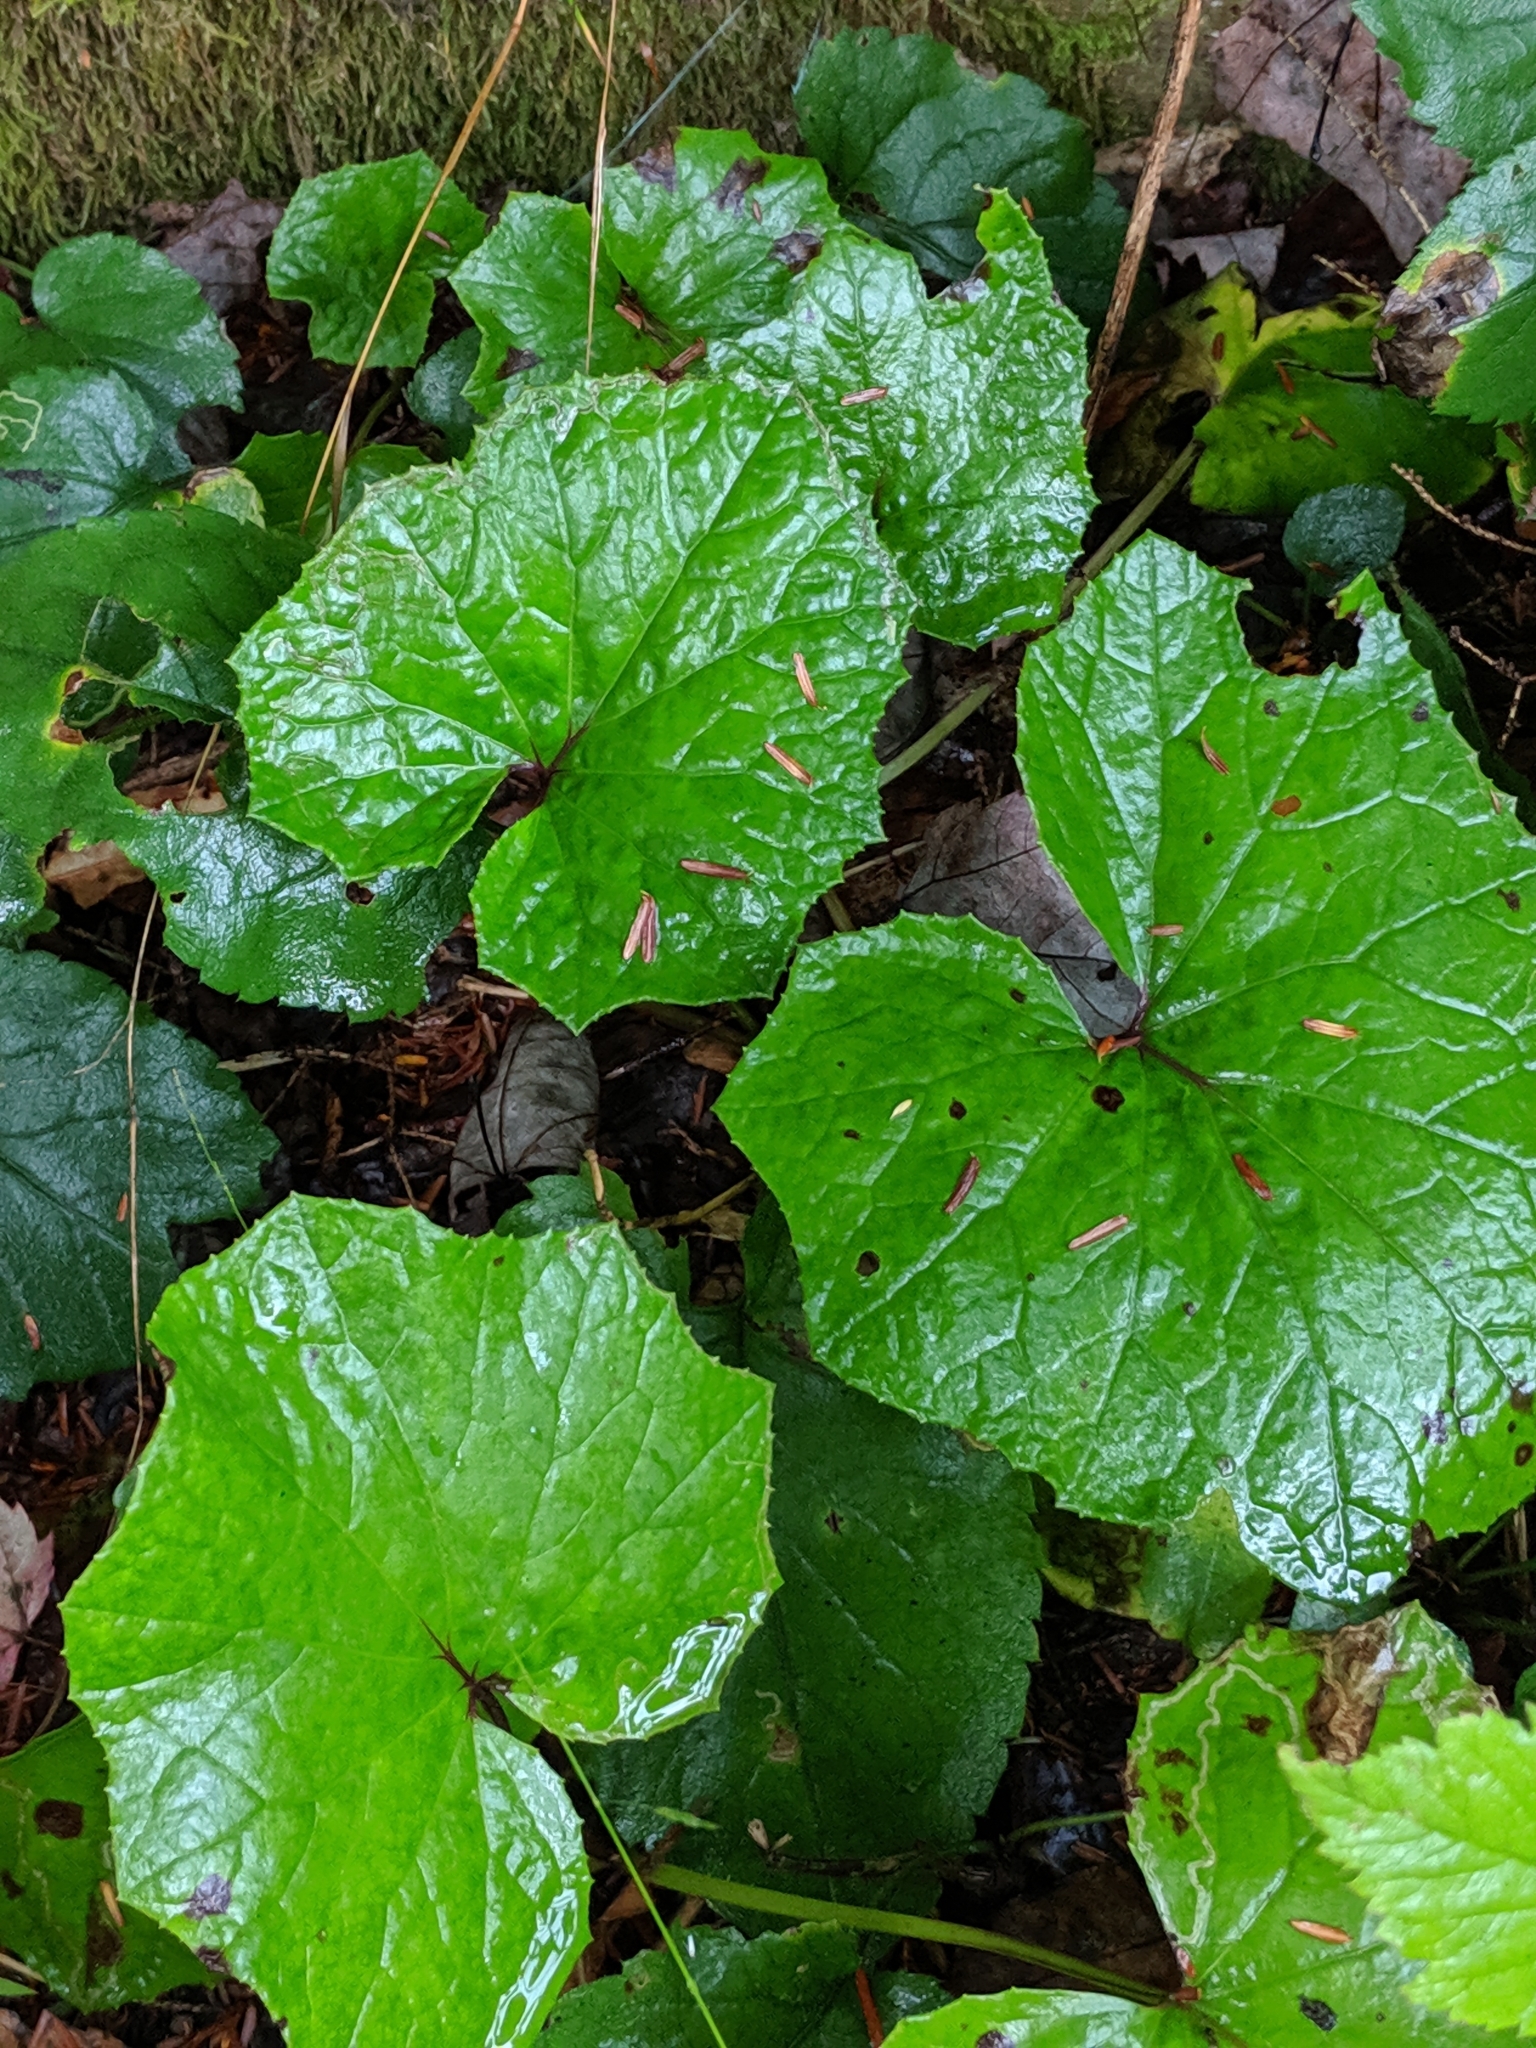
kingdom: Plantae
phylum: Tracheophyta
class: Magnoliopsida
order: Asterales
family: Asteraceae
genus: Tussilago
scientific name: Tussilago farfara
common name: Coltsfoot
